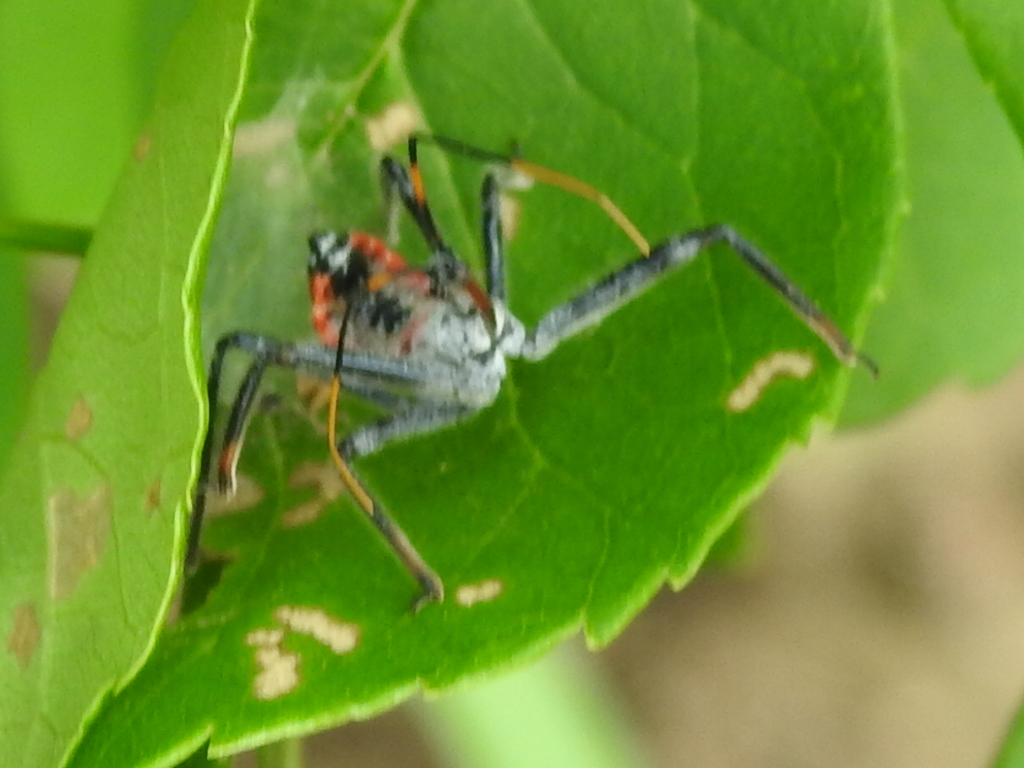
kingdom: Animalia
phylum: Arthropoda
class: Insecta
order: Hemiptera
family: Reduviidae
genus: Arilus
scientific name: Arilus cristatus
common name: North american wheel bug
